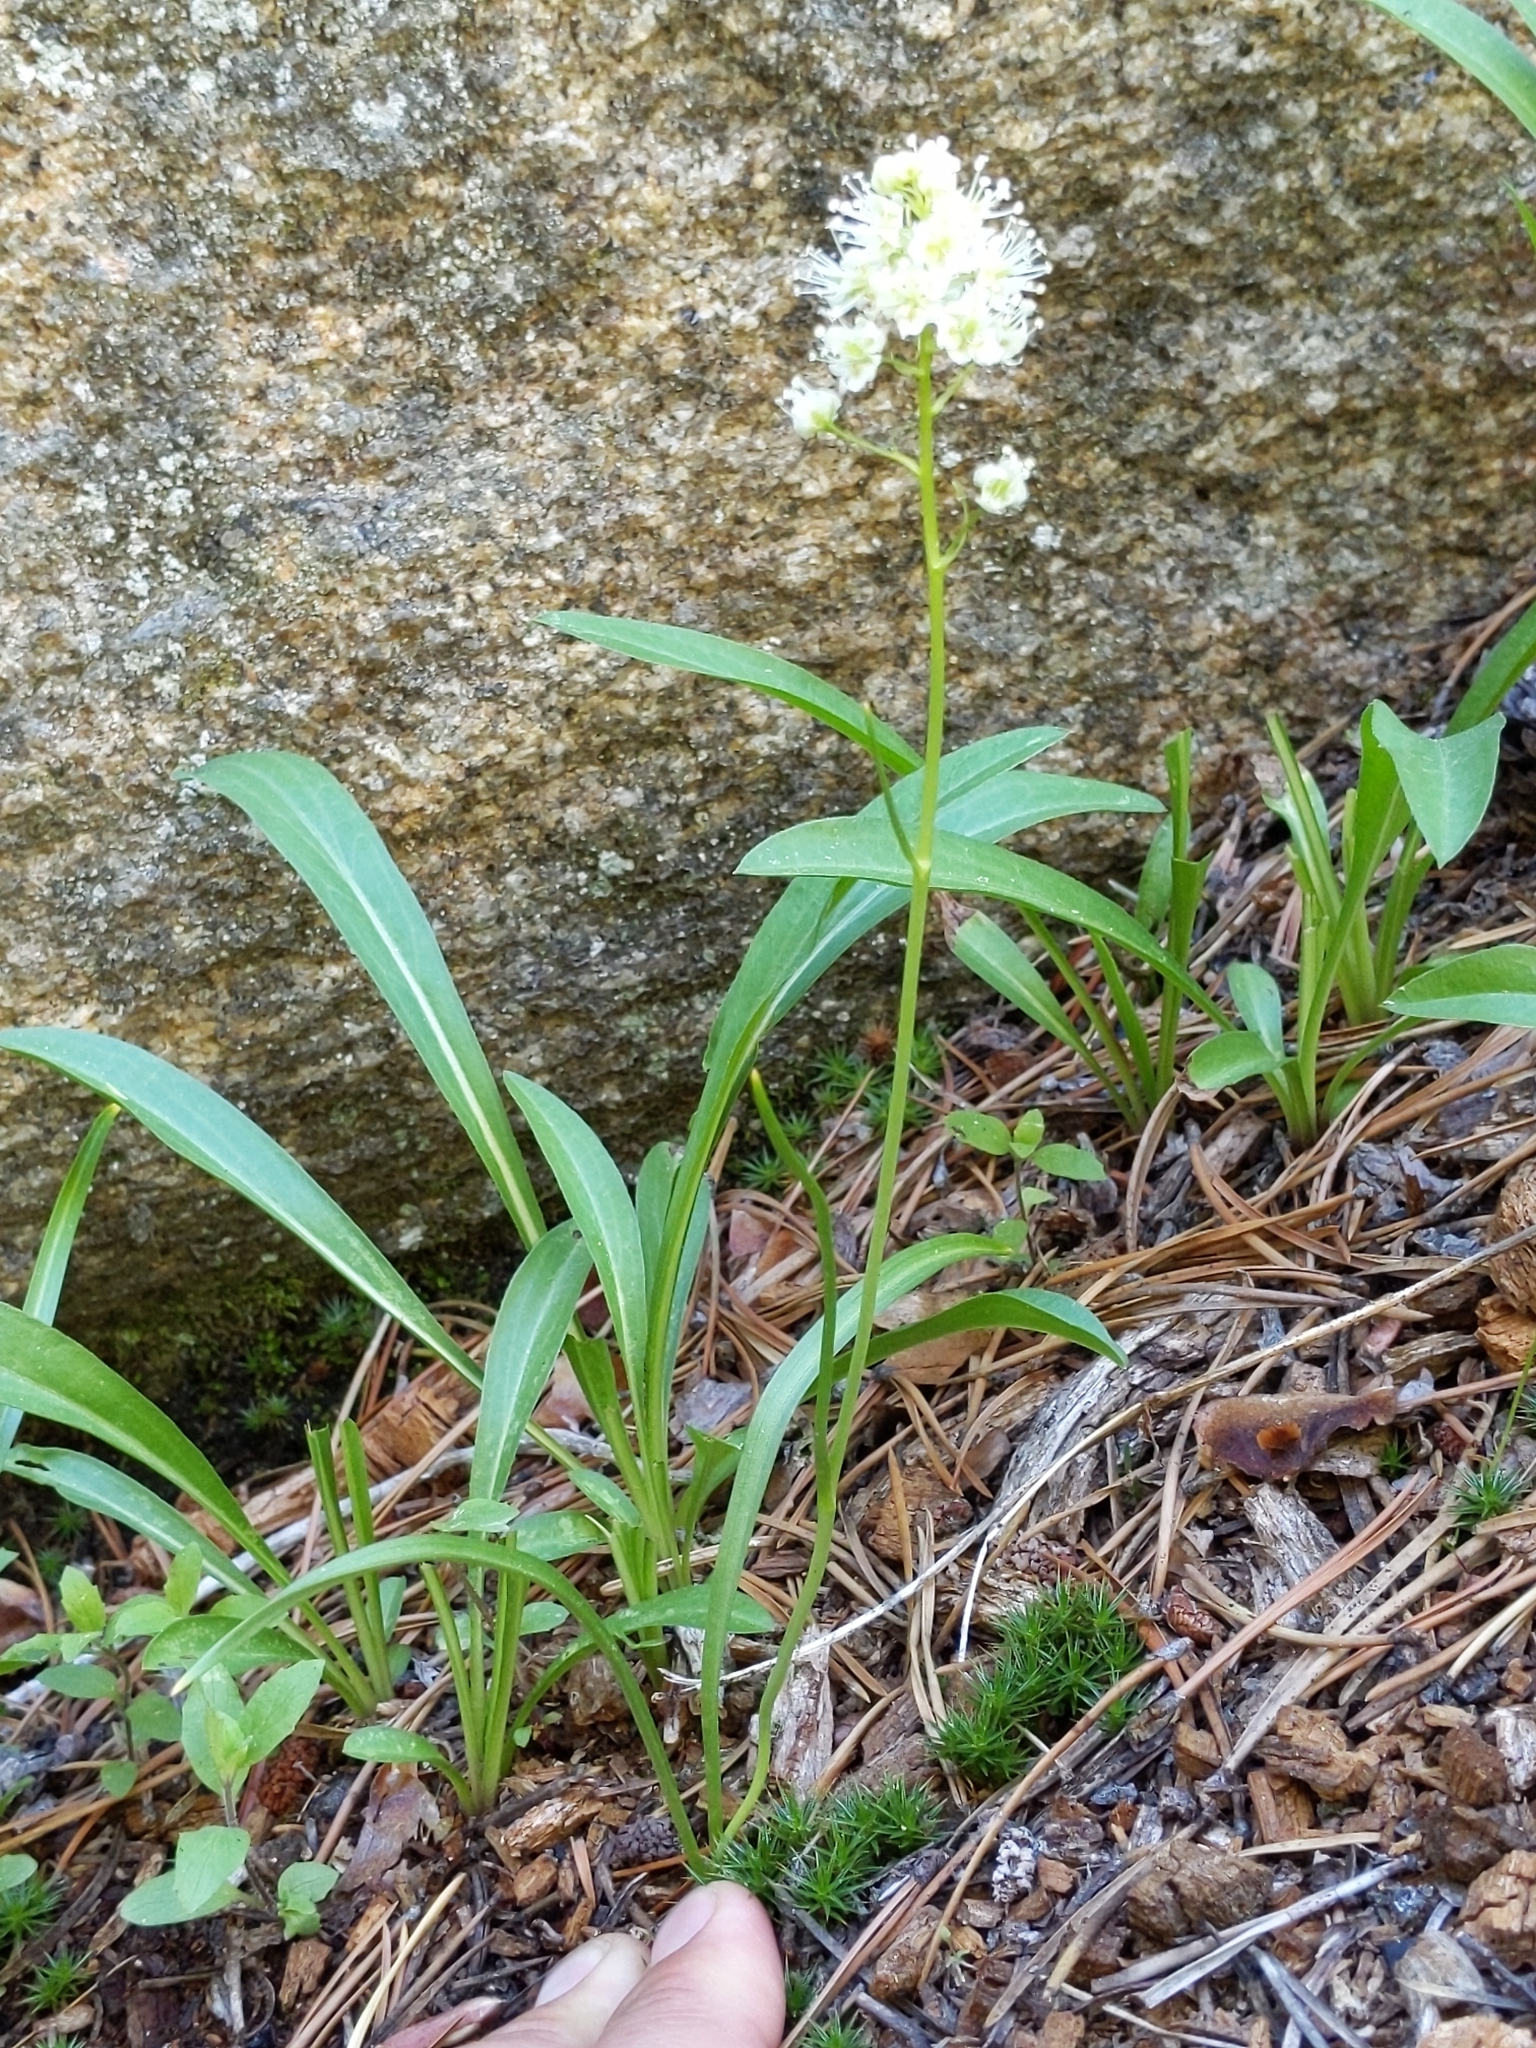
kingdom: Plantae
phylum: Tracheophyta
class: Liliopsida
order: Liliales
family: Melanthiaceae
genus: Toxicoscordion
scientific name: Toxicoscordion venenosum
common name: Meadow death camas
